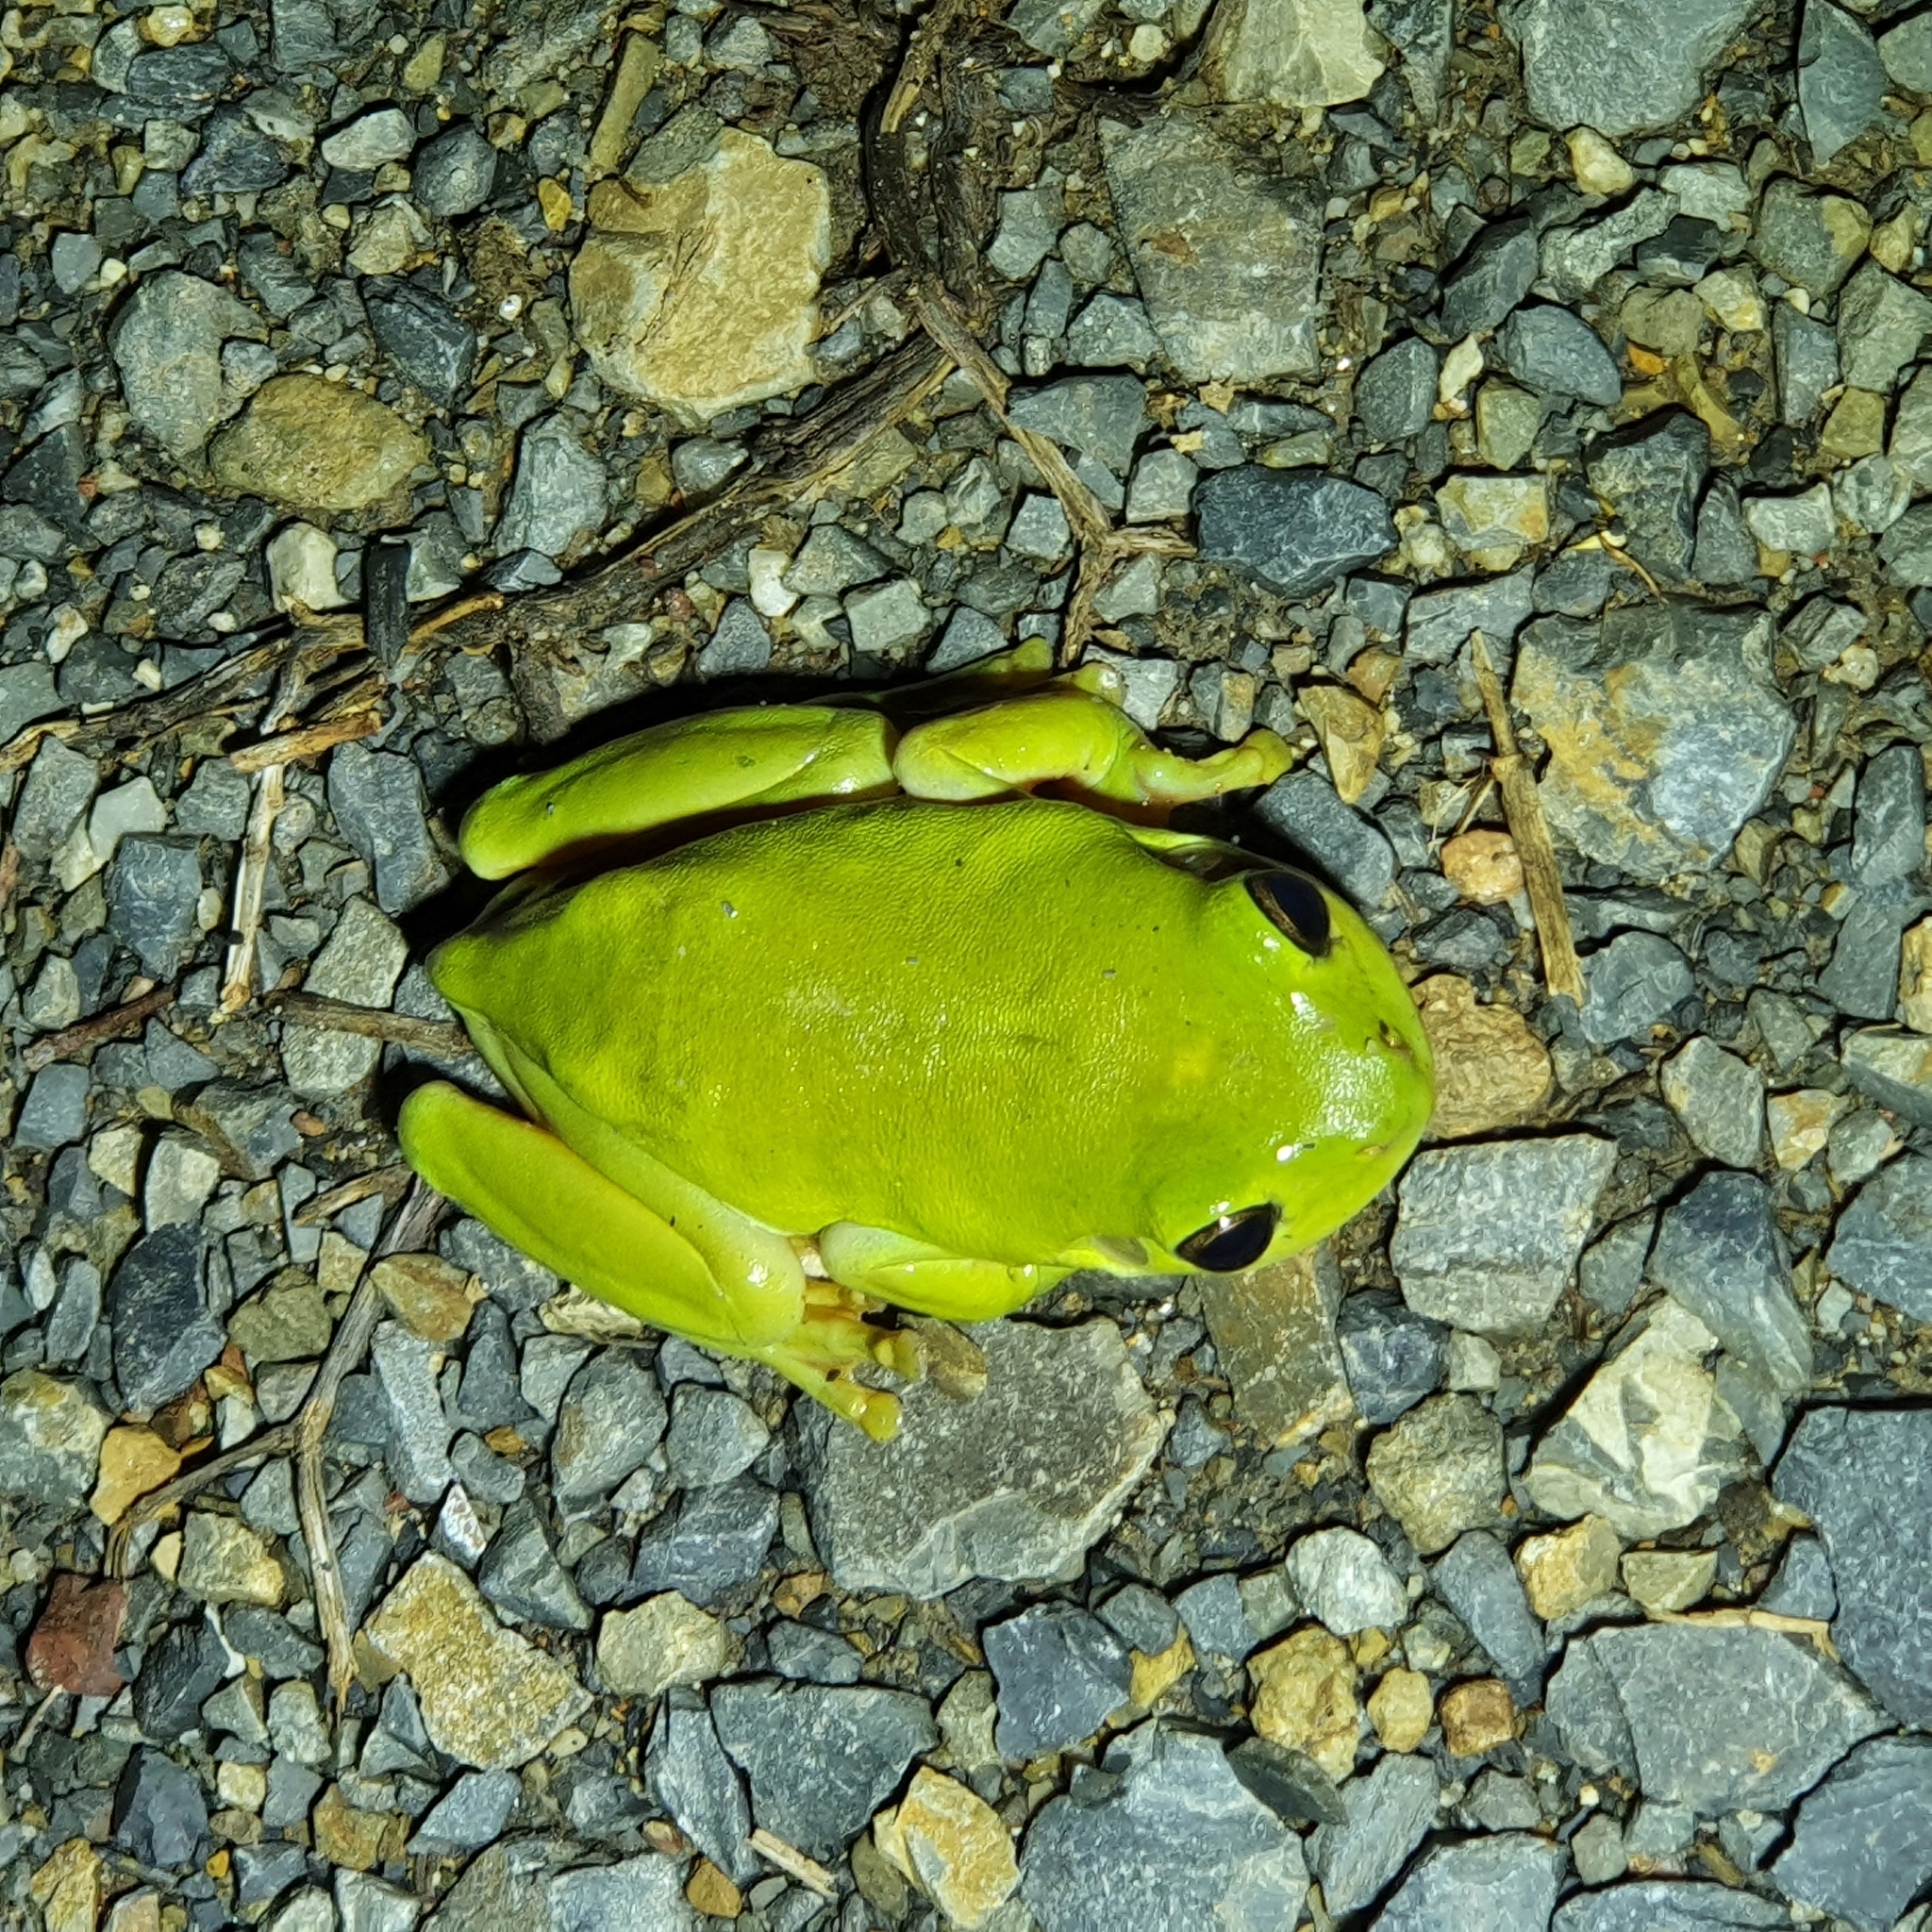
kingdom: Animalia
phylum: Chordata
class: Amphibia
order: Anura
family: Pelodryadidae
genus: Ranoidea
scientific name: Ranoidea caerulea
